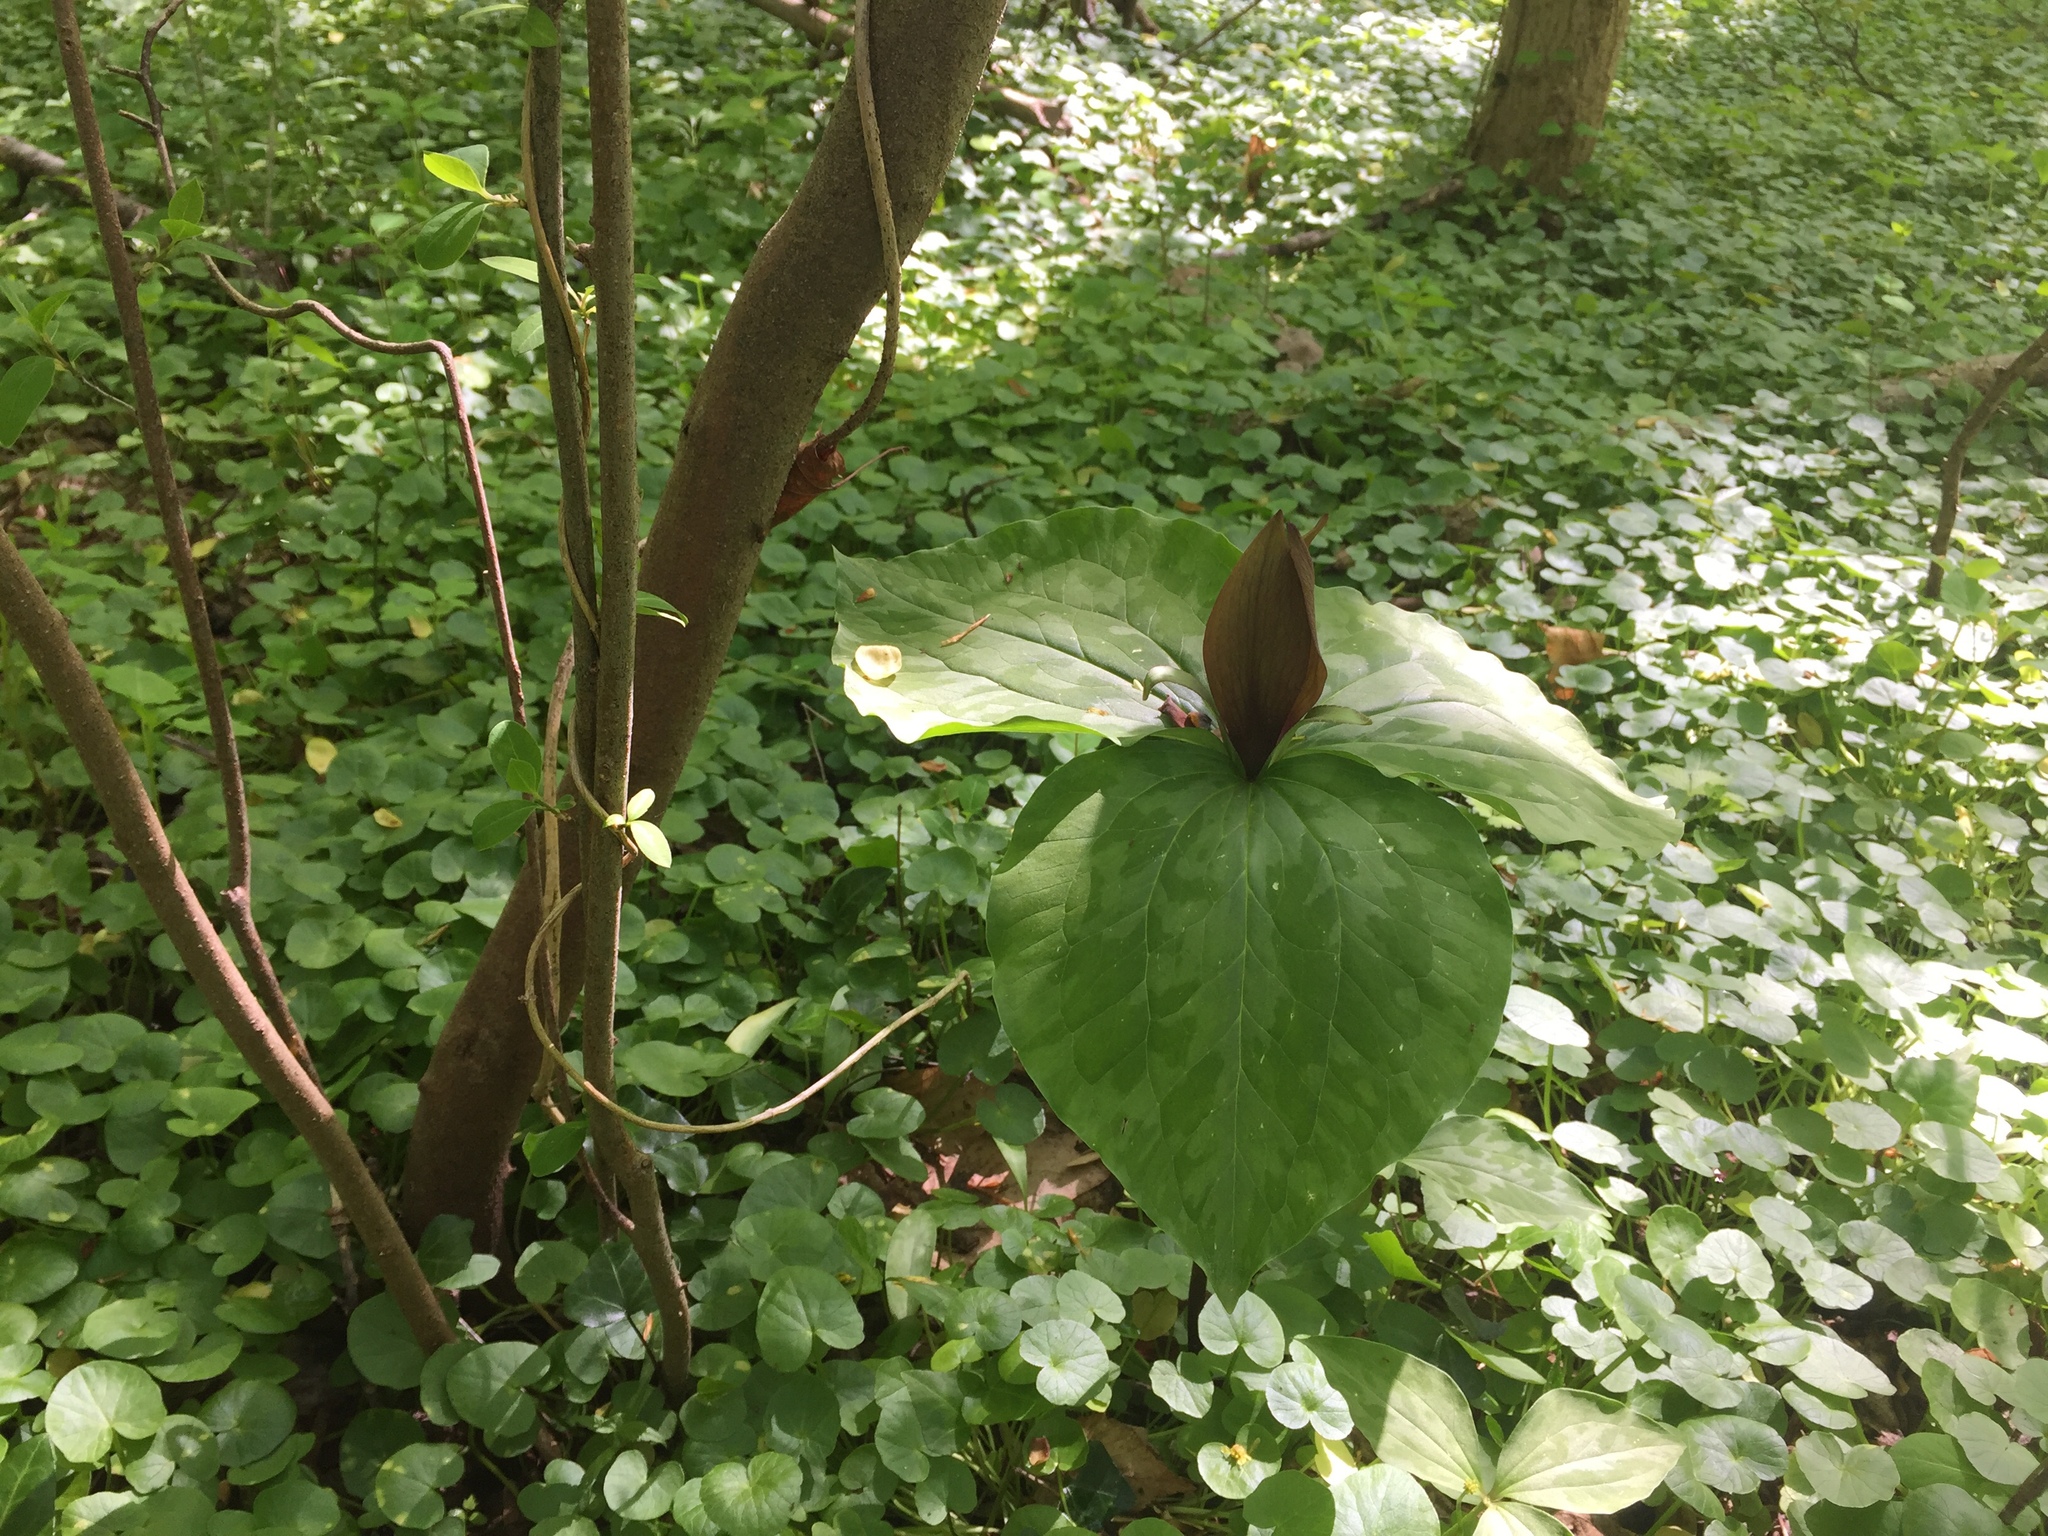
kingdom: Plantae
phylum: Tracheophyta
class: Liliopsida
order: Liliales
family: Melanthiaceae
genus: Trillium
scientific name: Trillium cuneatum
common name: Cuneate trillium
